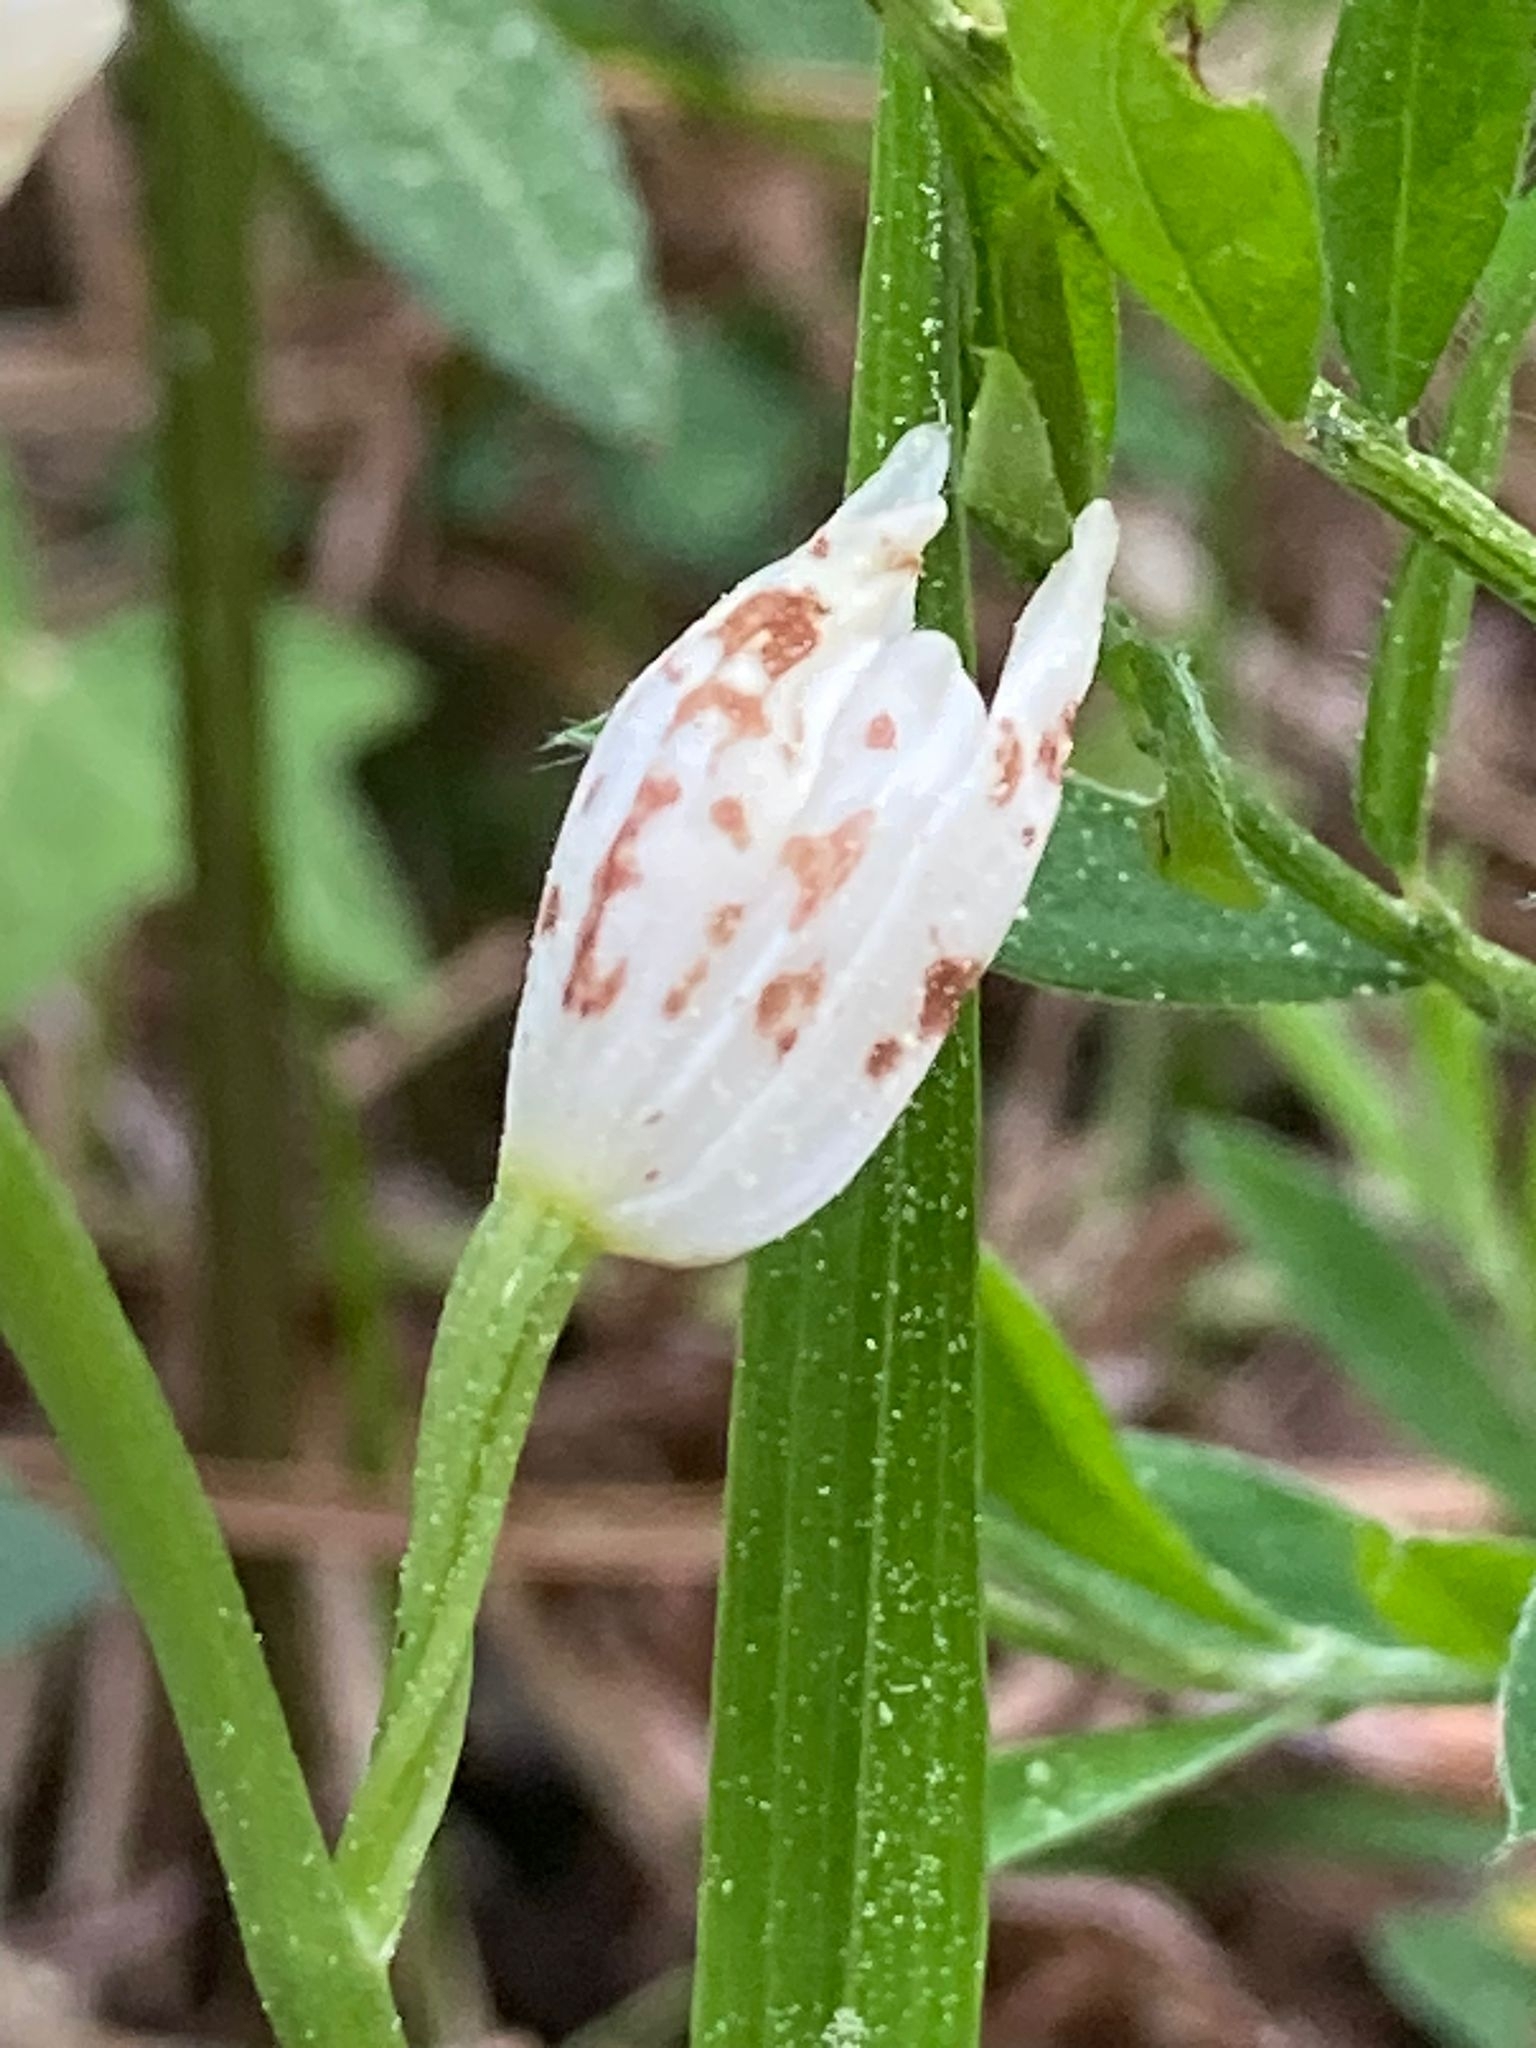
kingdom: Plantae
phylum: Tracheophyta
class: Liliopsida
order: Asparagales
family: Orchidaceae
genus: Cephalanthera
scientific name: Cephalanthera longifolia
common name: Narrow-leaved helleborine
